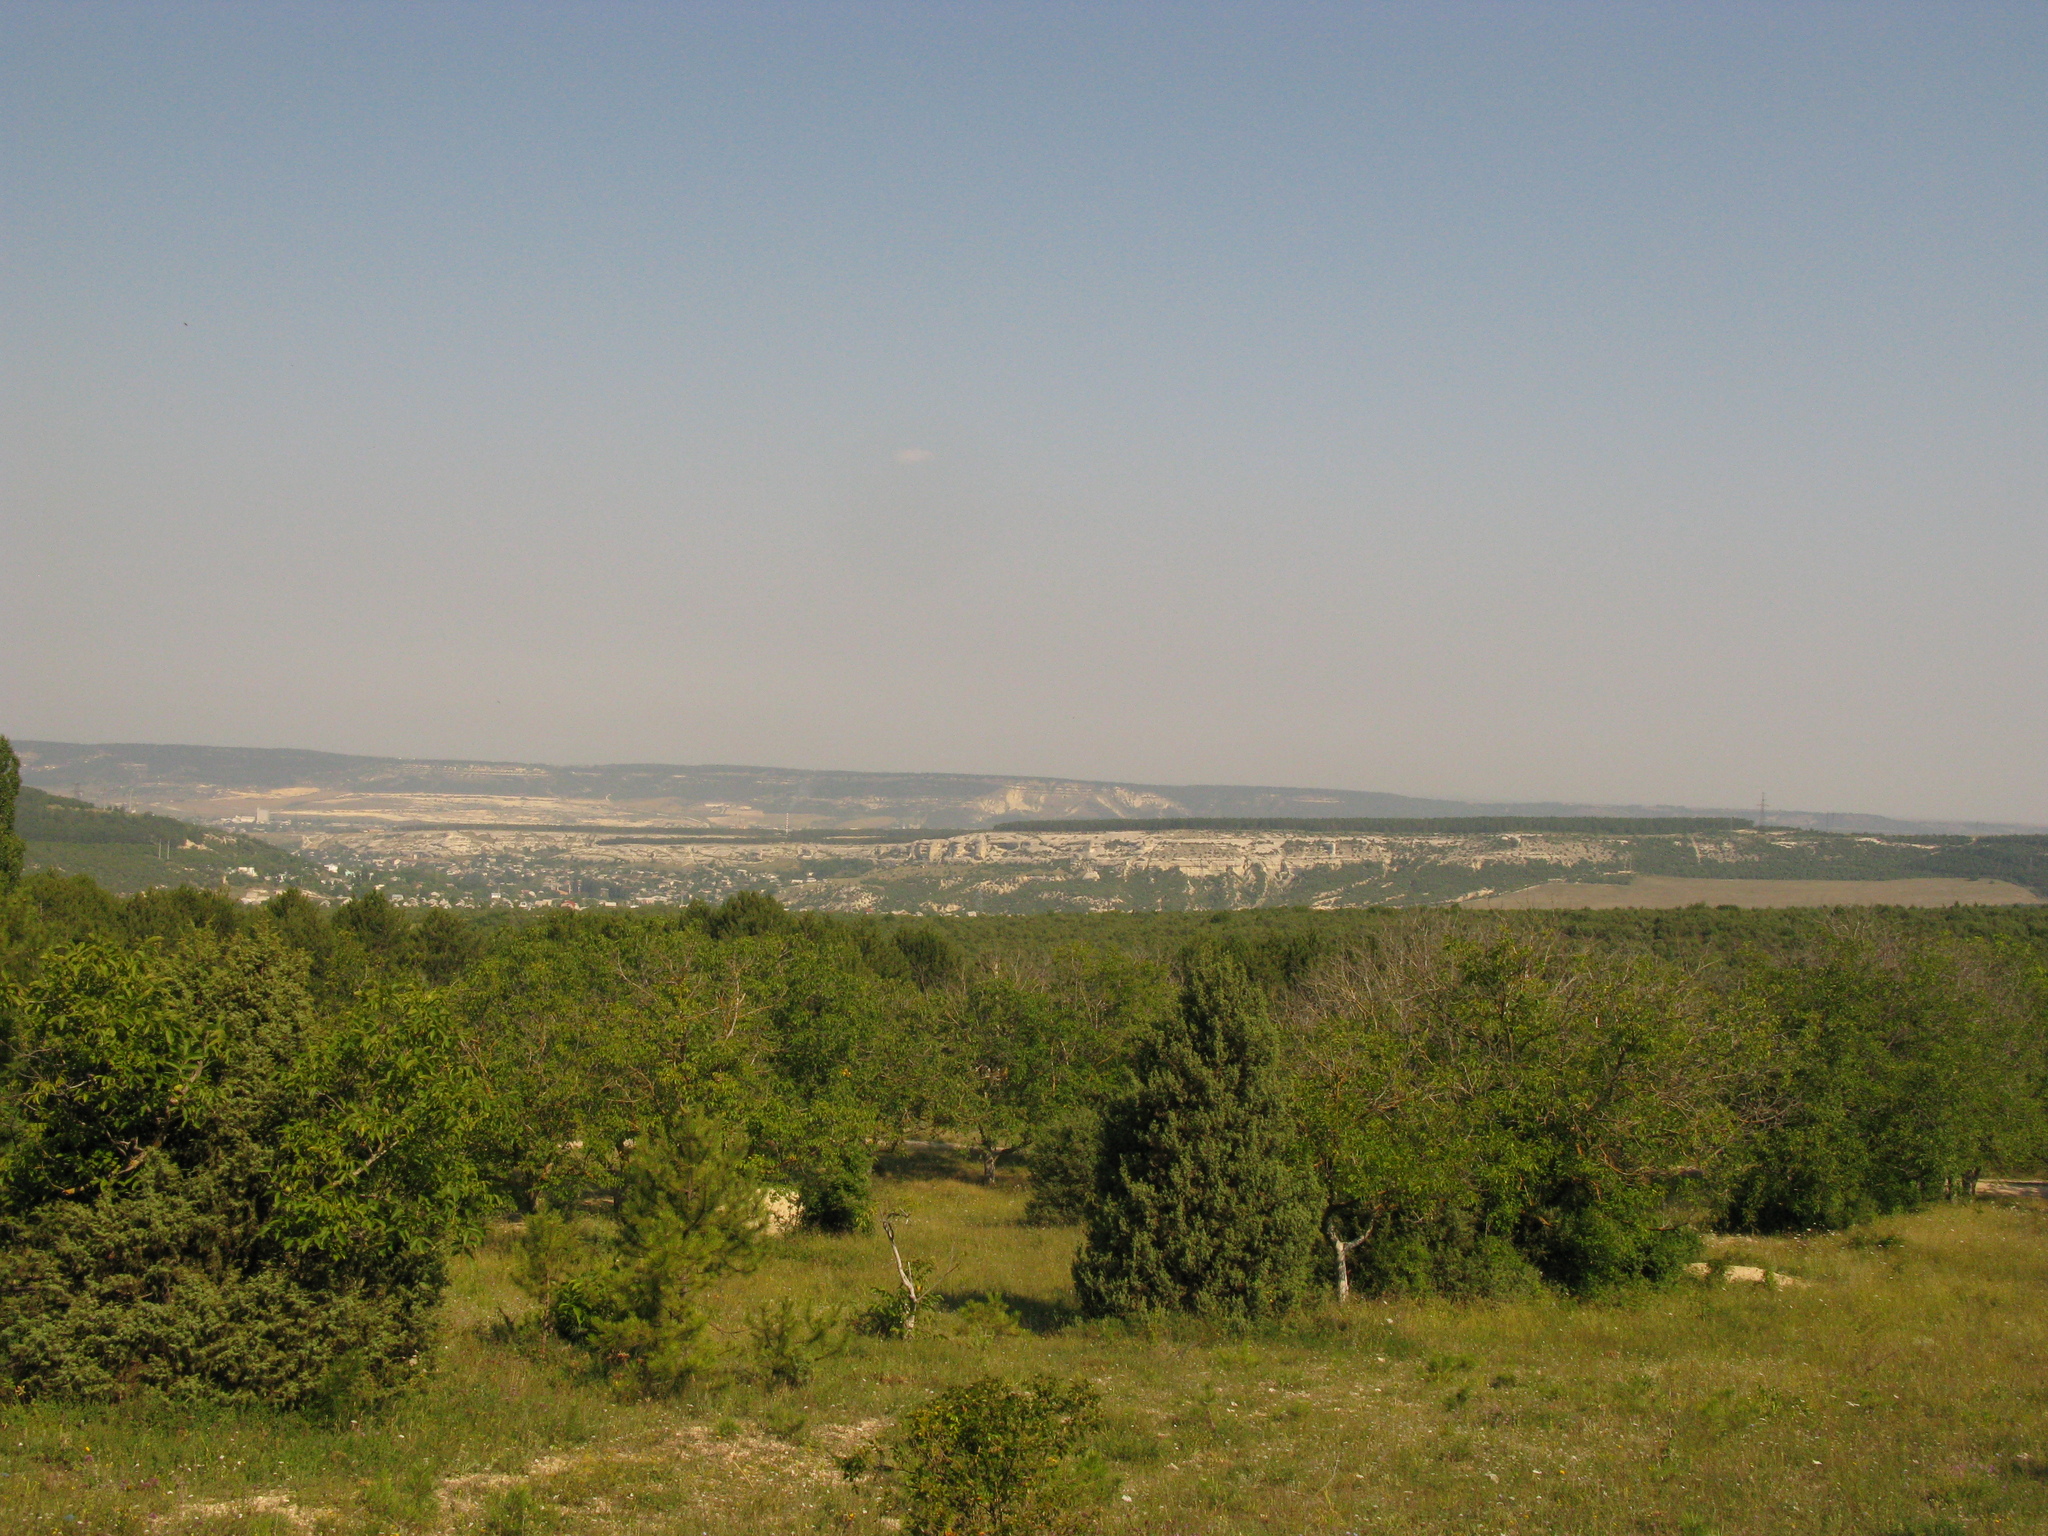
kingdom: Plantae
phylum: Tracheophyta
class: Pinopsida
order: Pinales
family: Cupressaceae
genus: Juniperus
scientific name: Juniperus oxycedrus
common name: Prickly juniper
